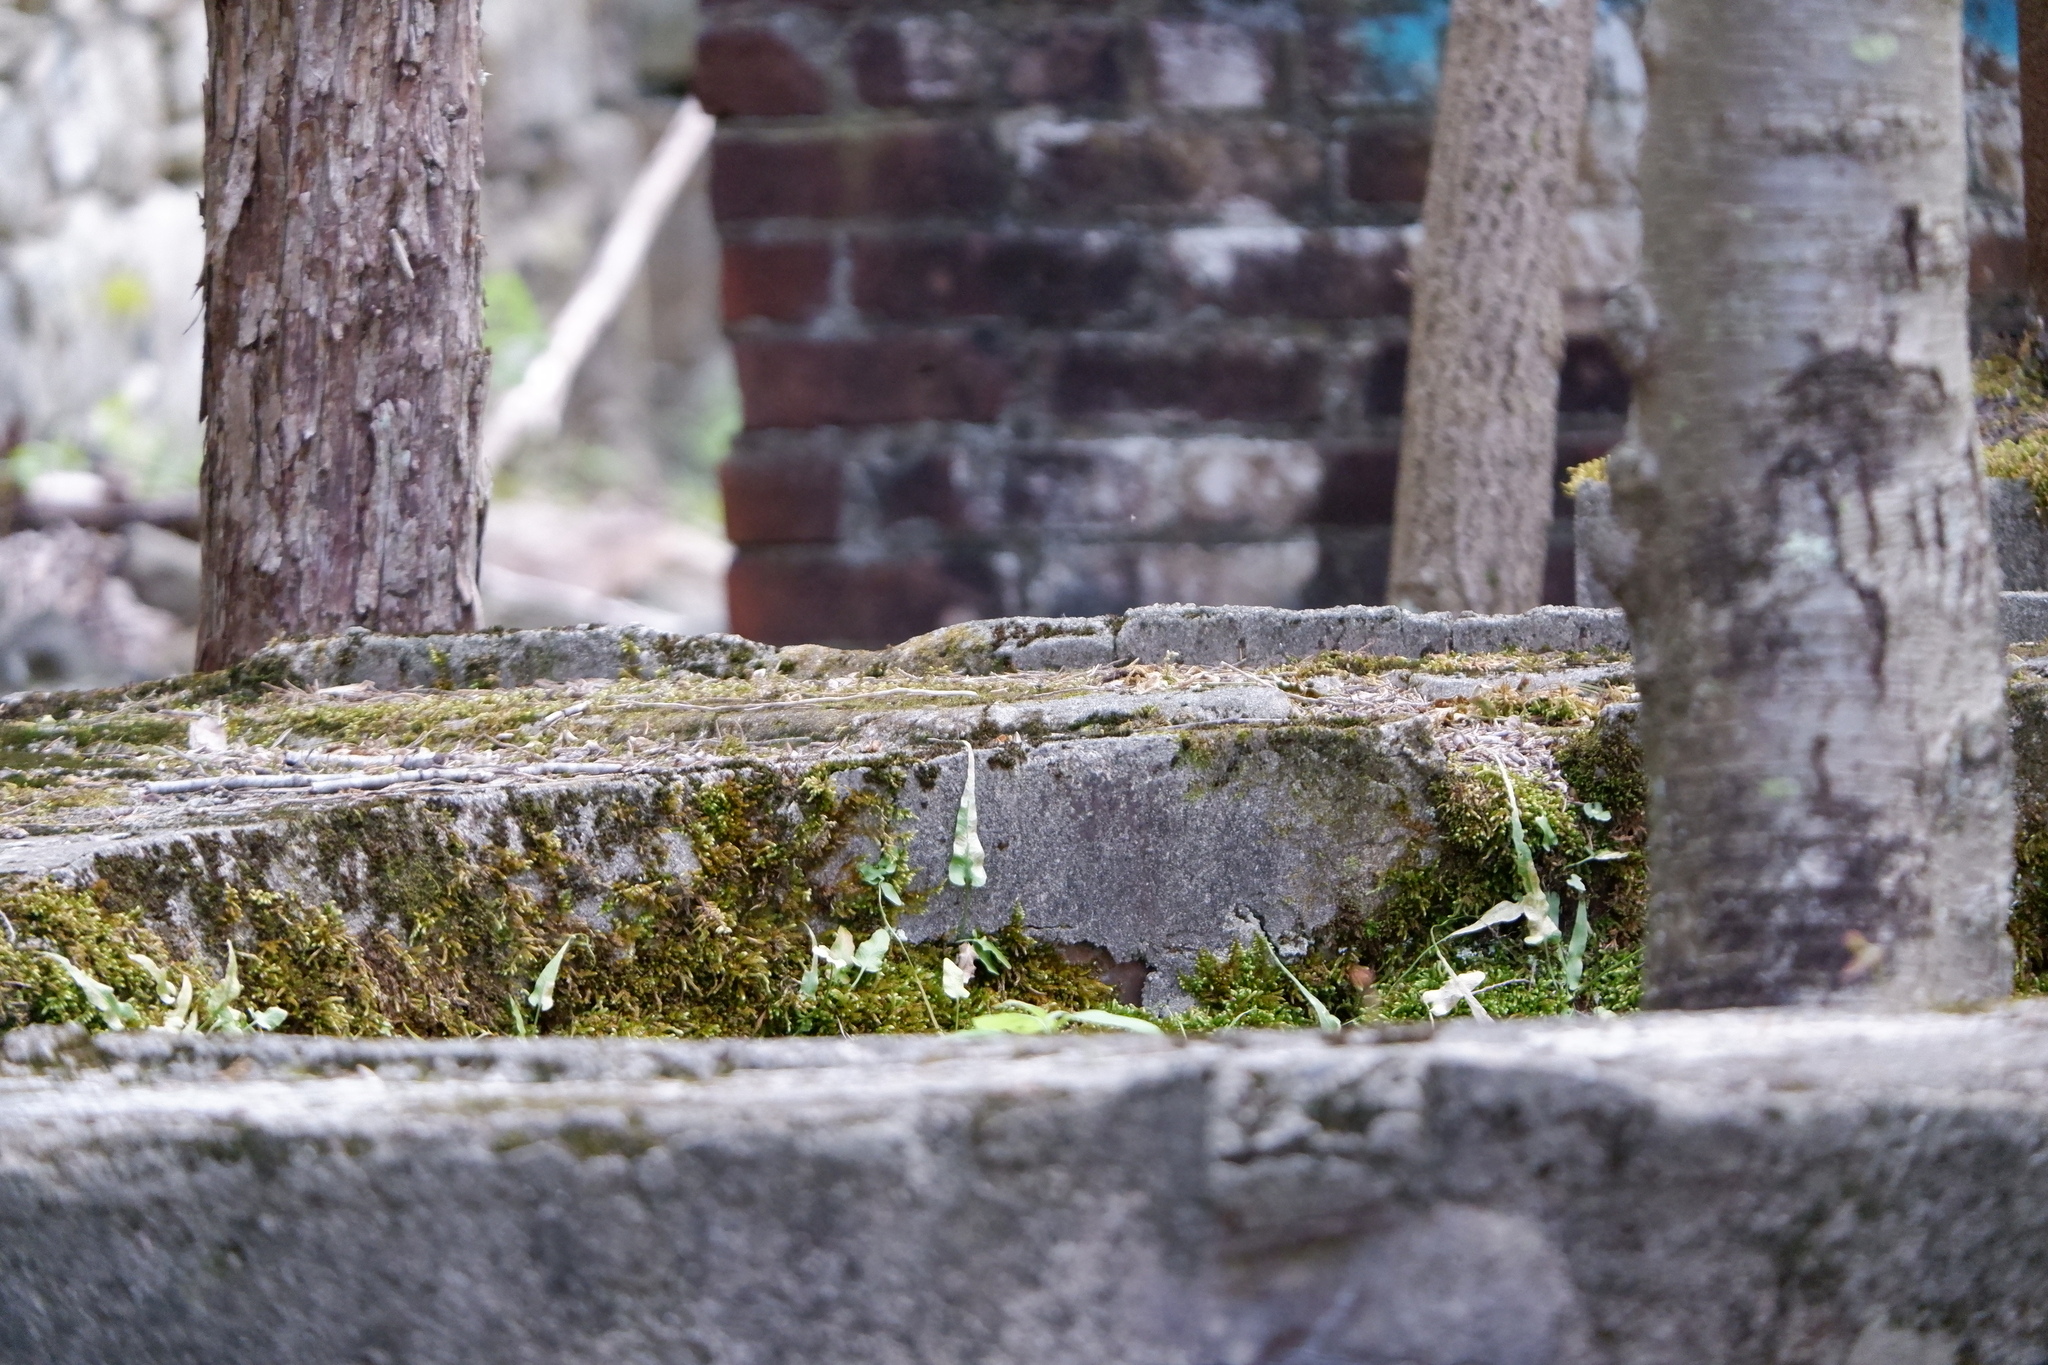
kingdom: Plantae
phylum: Tracheophyta
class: Polypodiopsida
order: Polypodiales
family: Aspleniaceae
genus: Asplenium
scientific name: Asplenium rhizophyllum
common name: Walking fern
